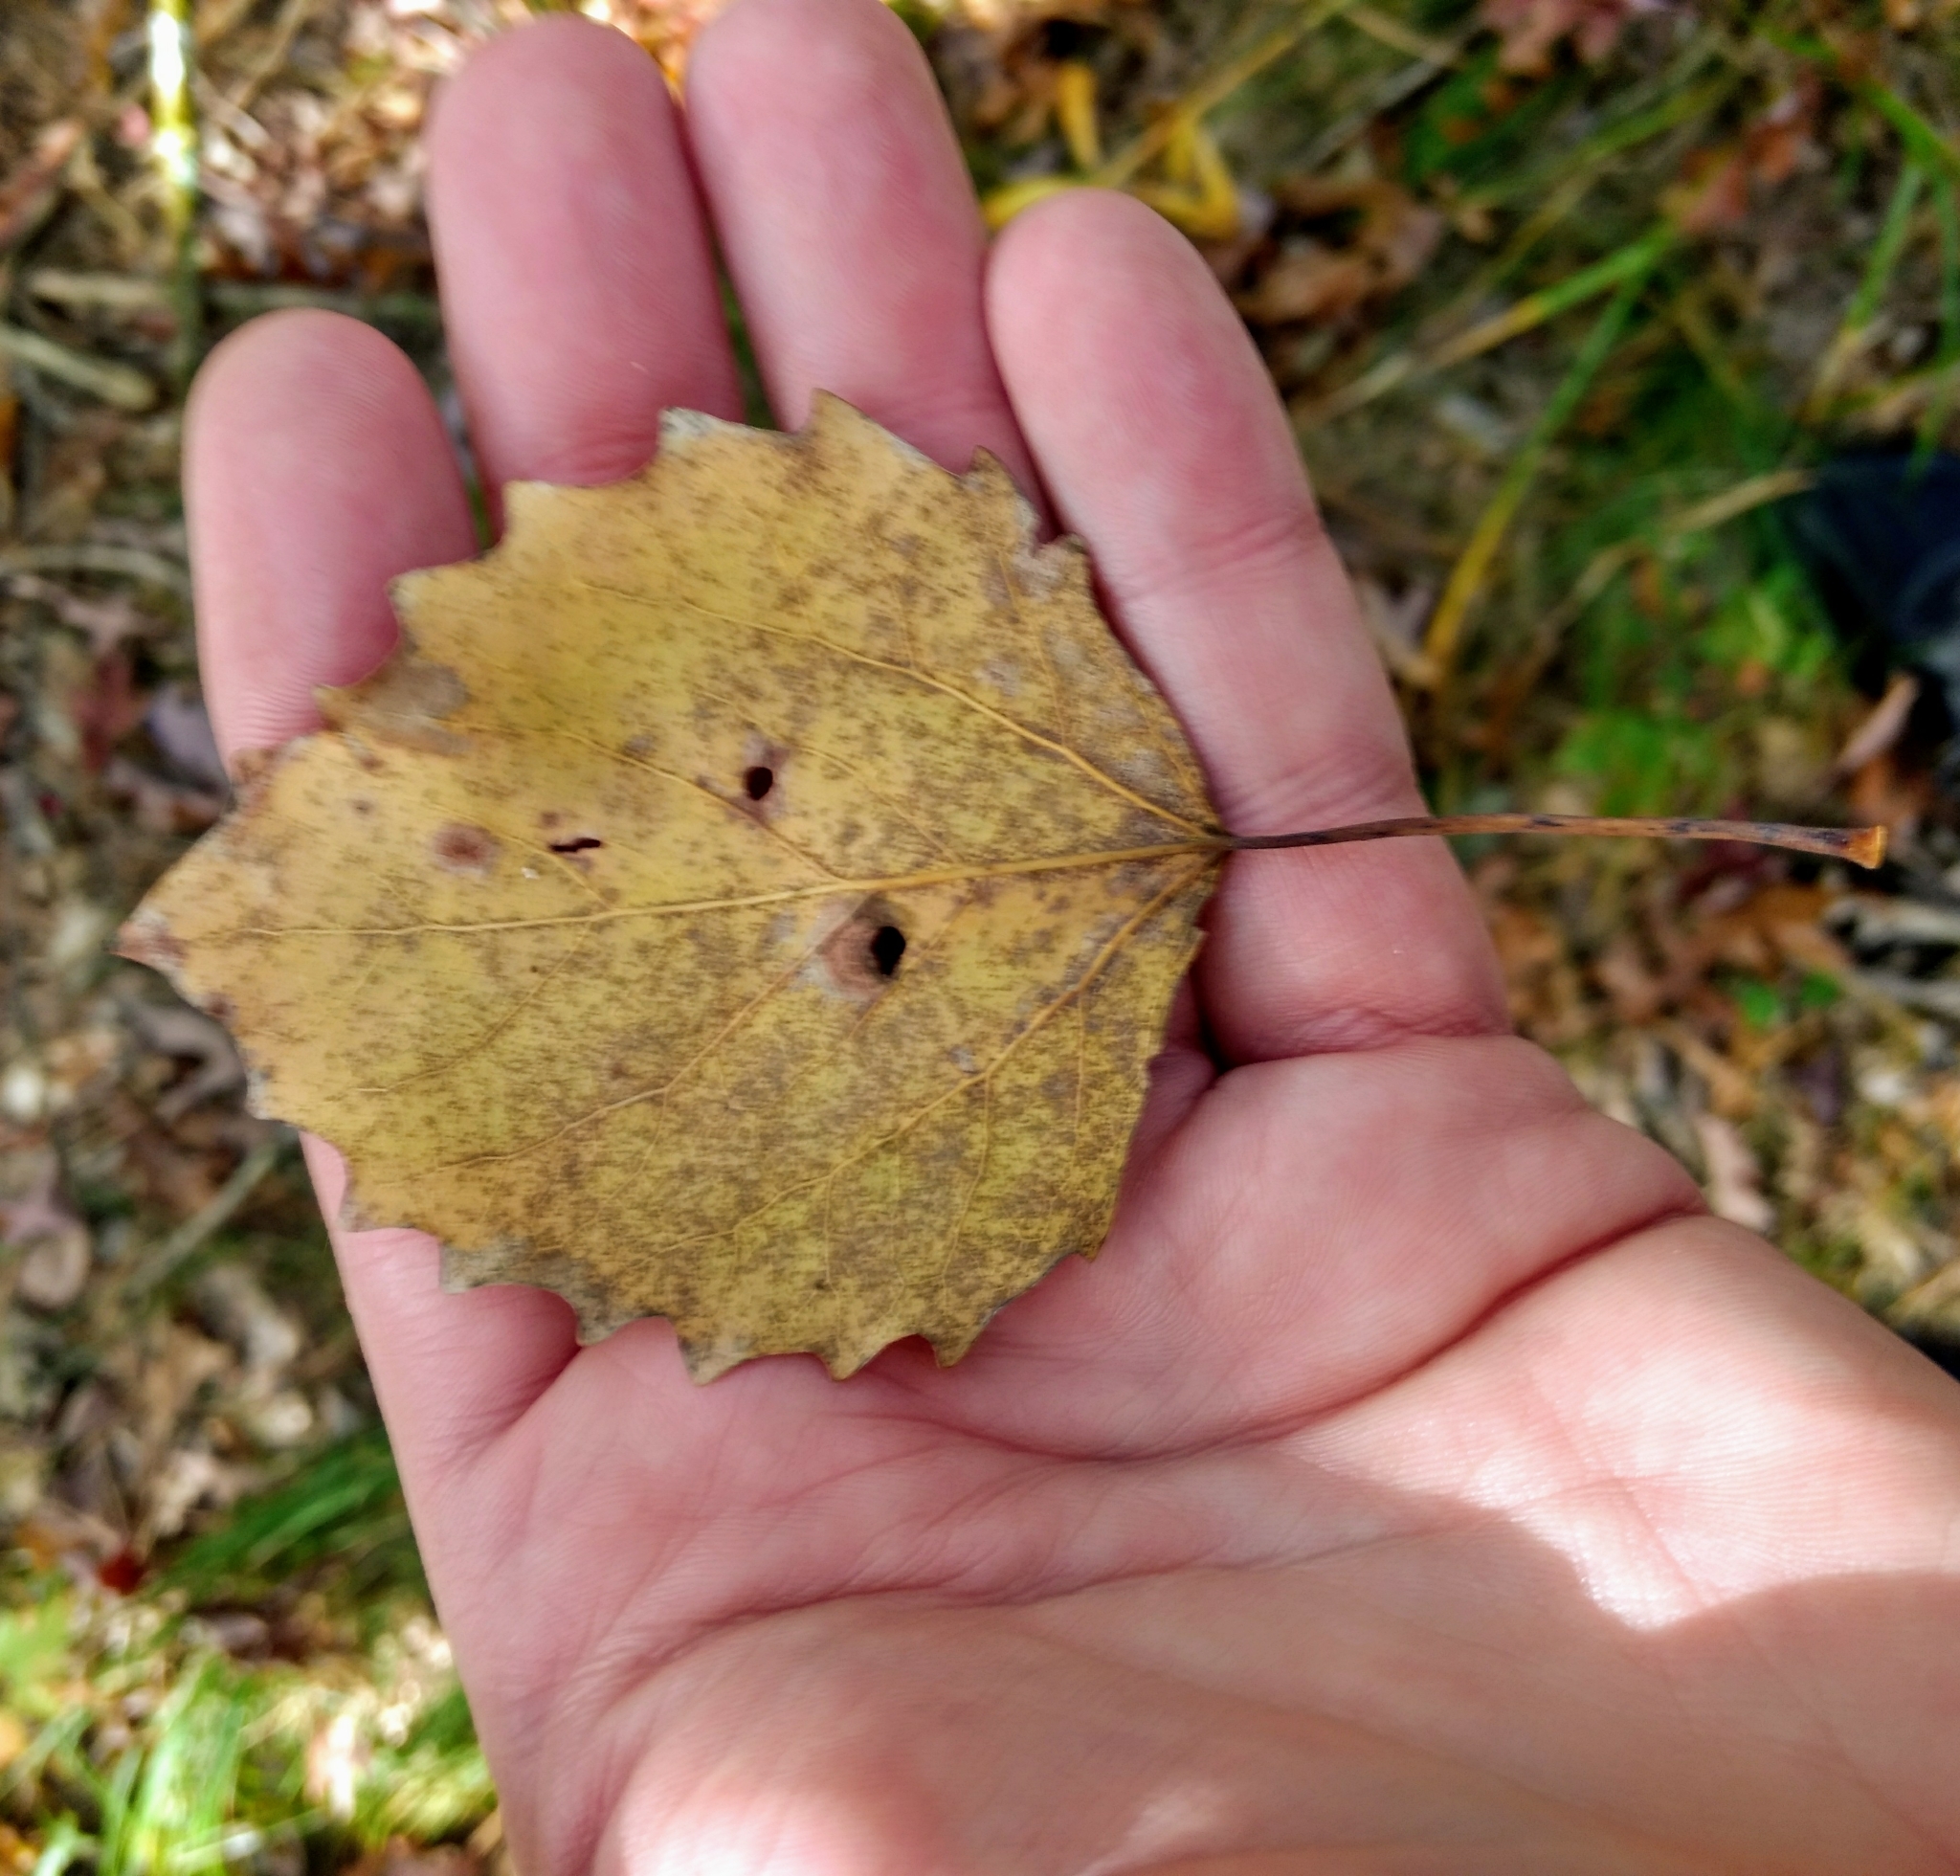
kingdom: Plantae
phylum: Tracheophyta
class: Magnoliopsida
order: Malpighiales
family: Salicaceae
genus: Populus
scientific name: Populus grandidentata
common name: Bigtooth aspen
